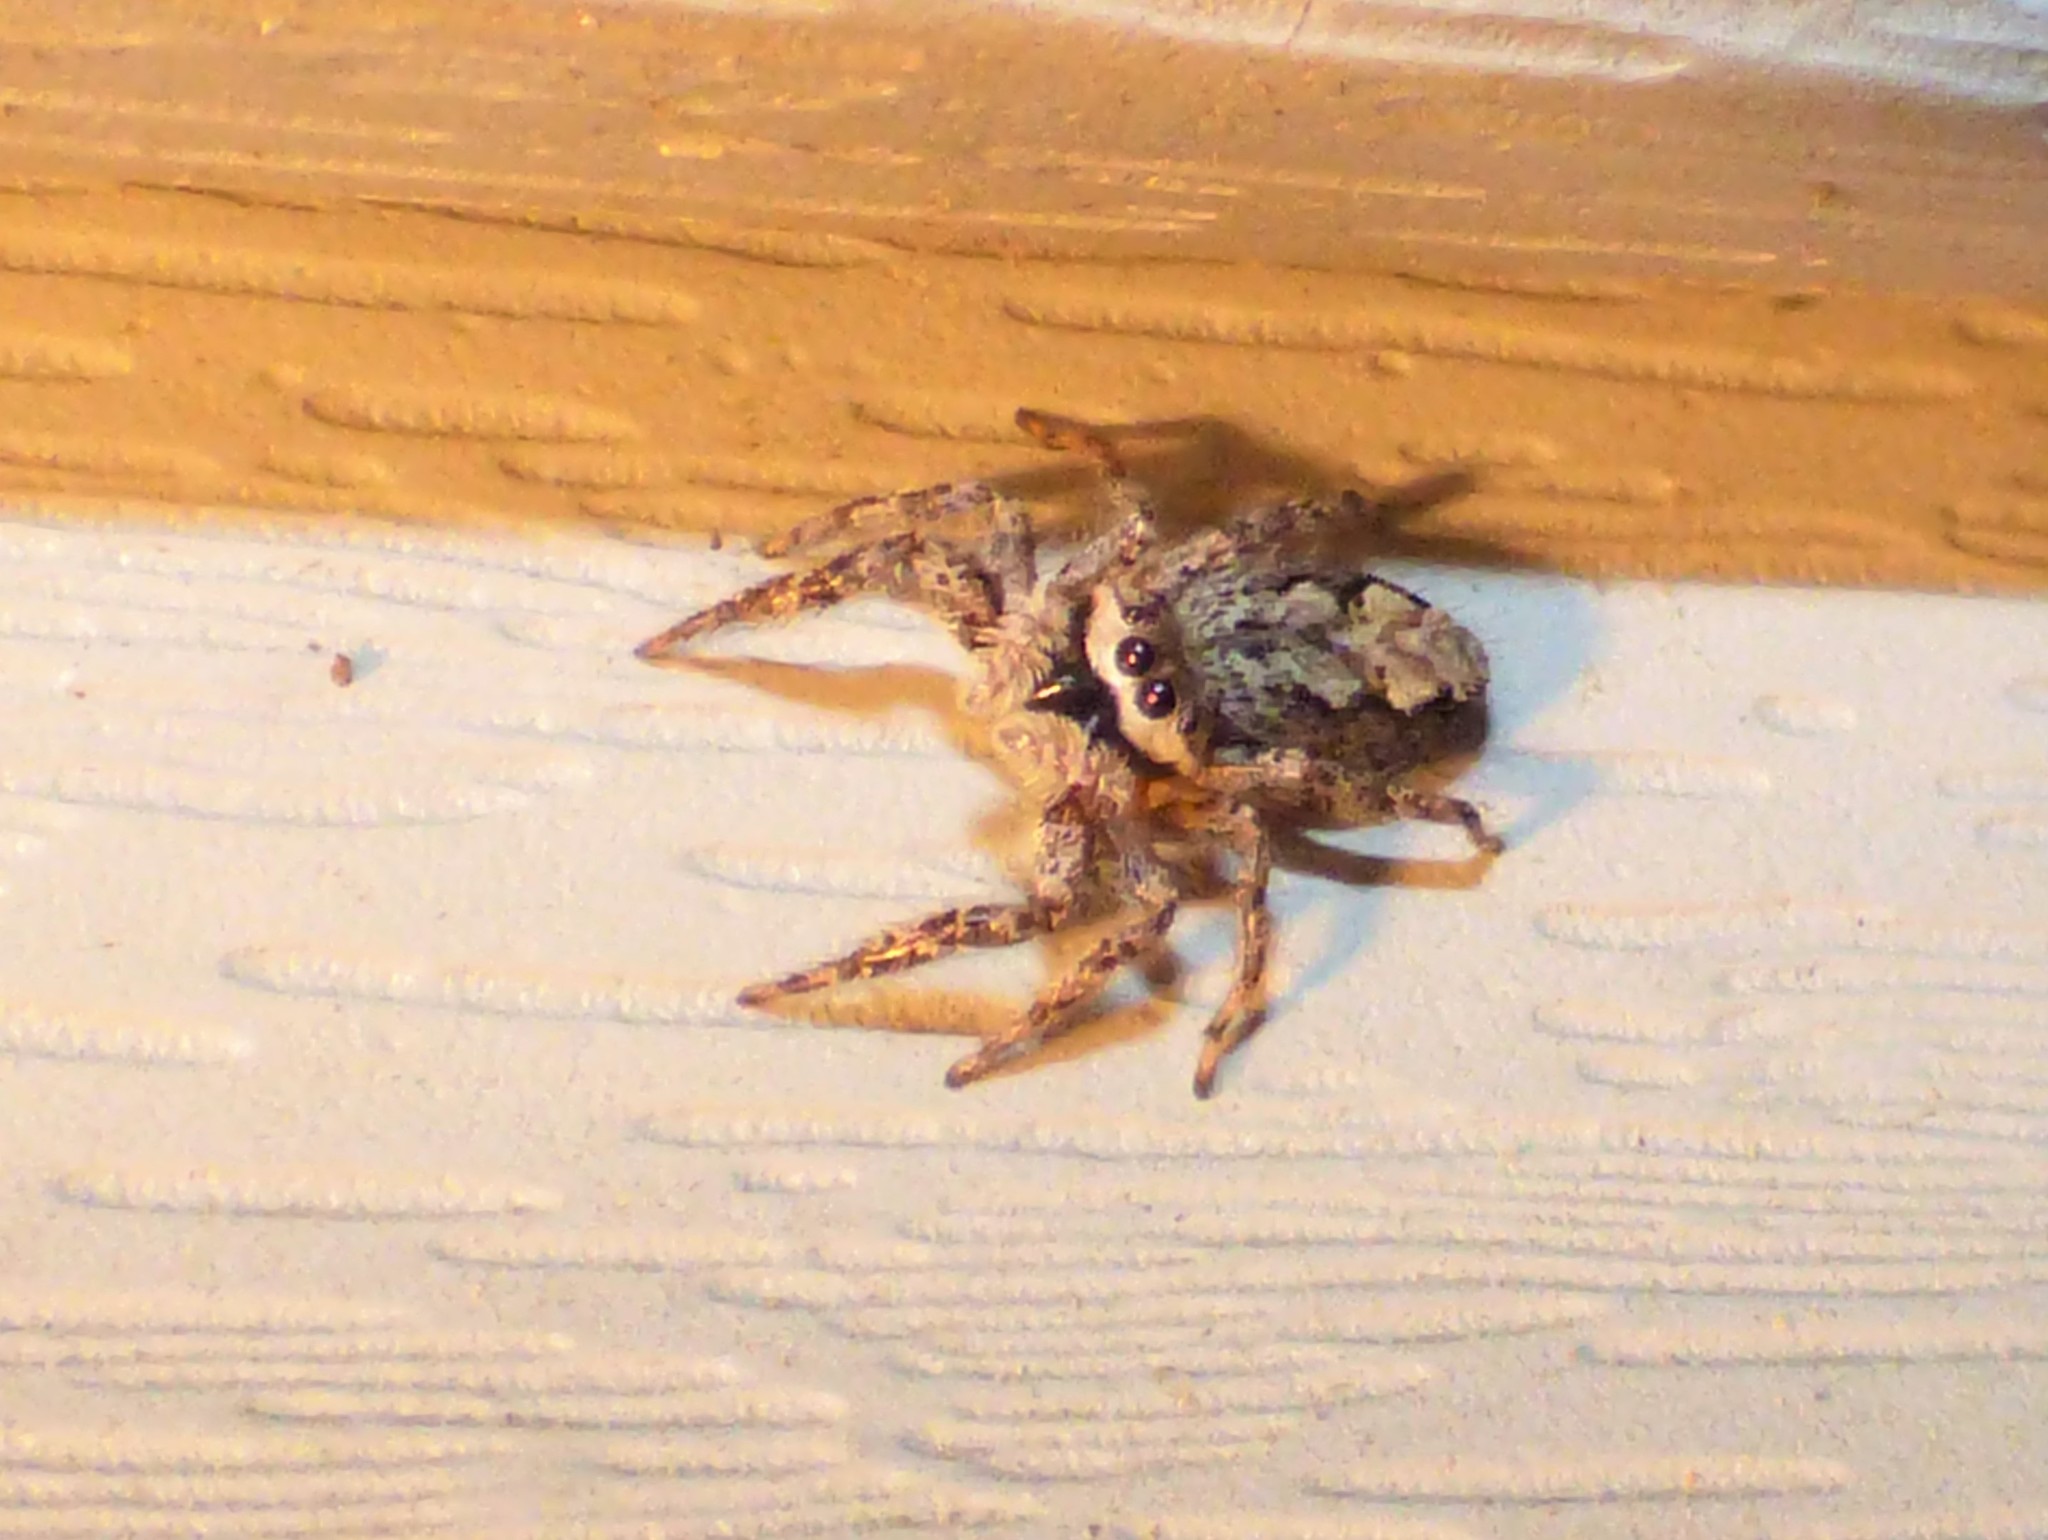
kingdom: Animalia
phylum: Arthropoda
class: Arachnida
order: Araneae
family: Salticidae
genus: Platycryptus
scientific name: Platycryptus undatus
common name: Tan jumping spider
